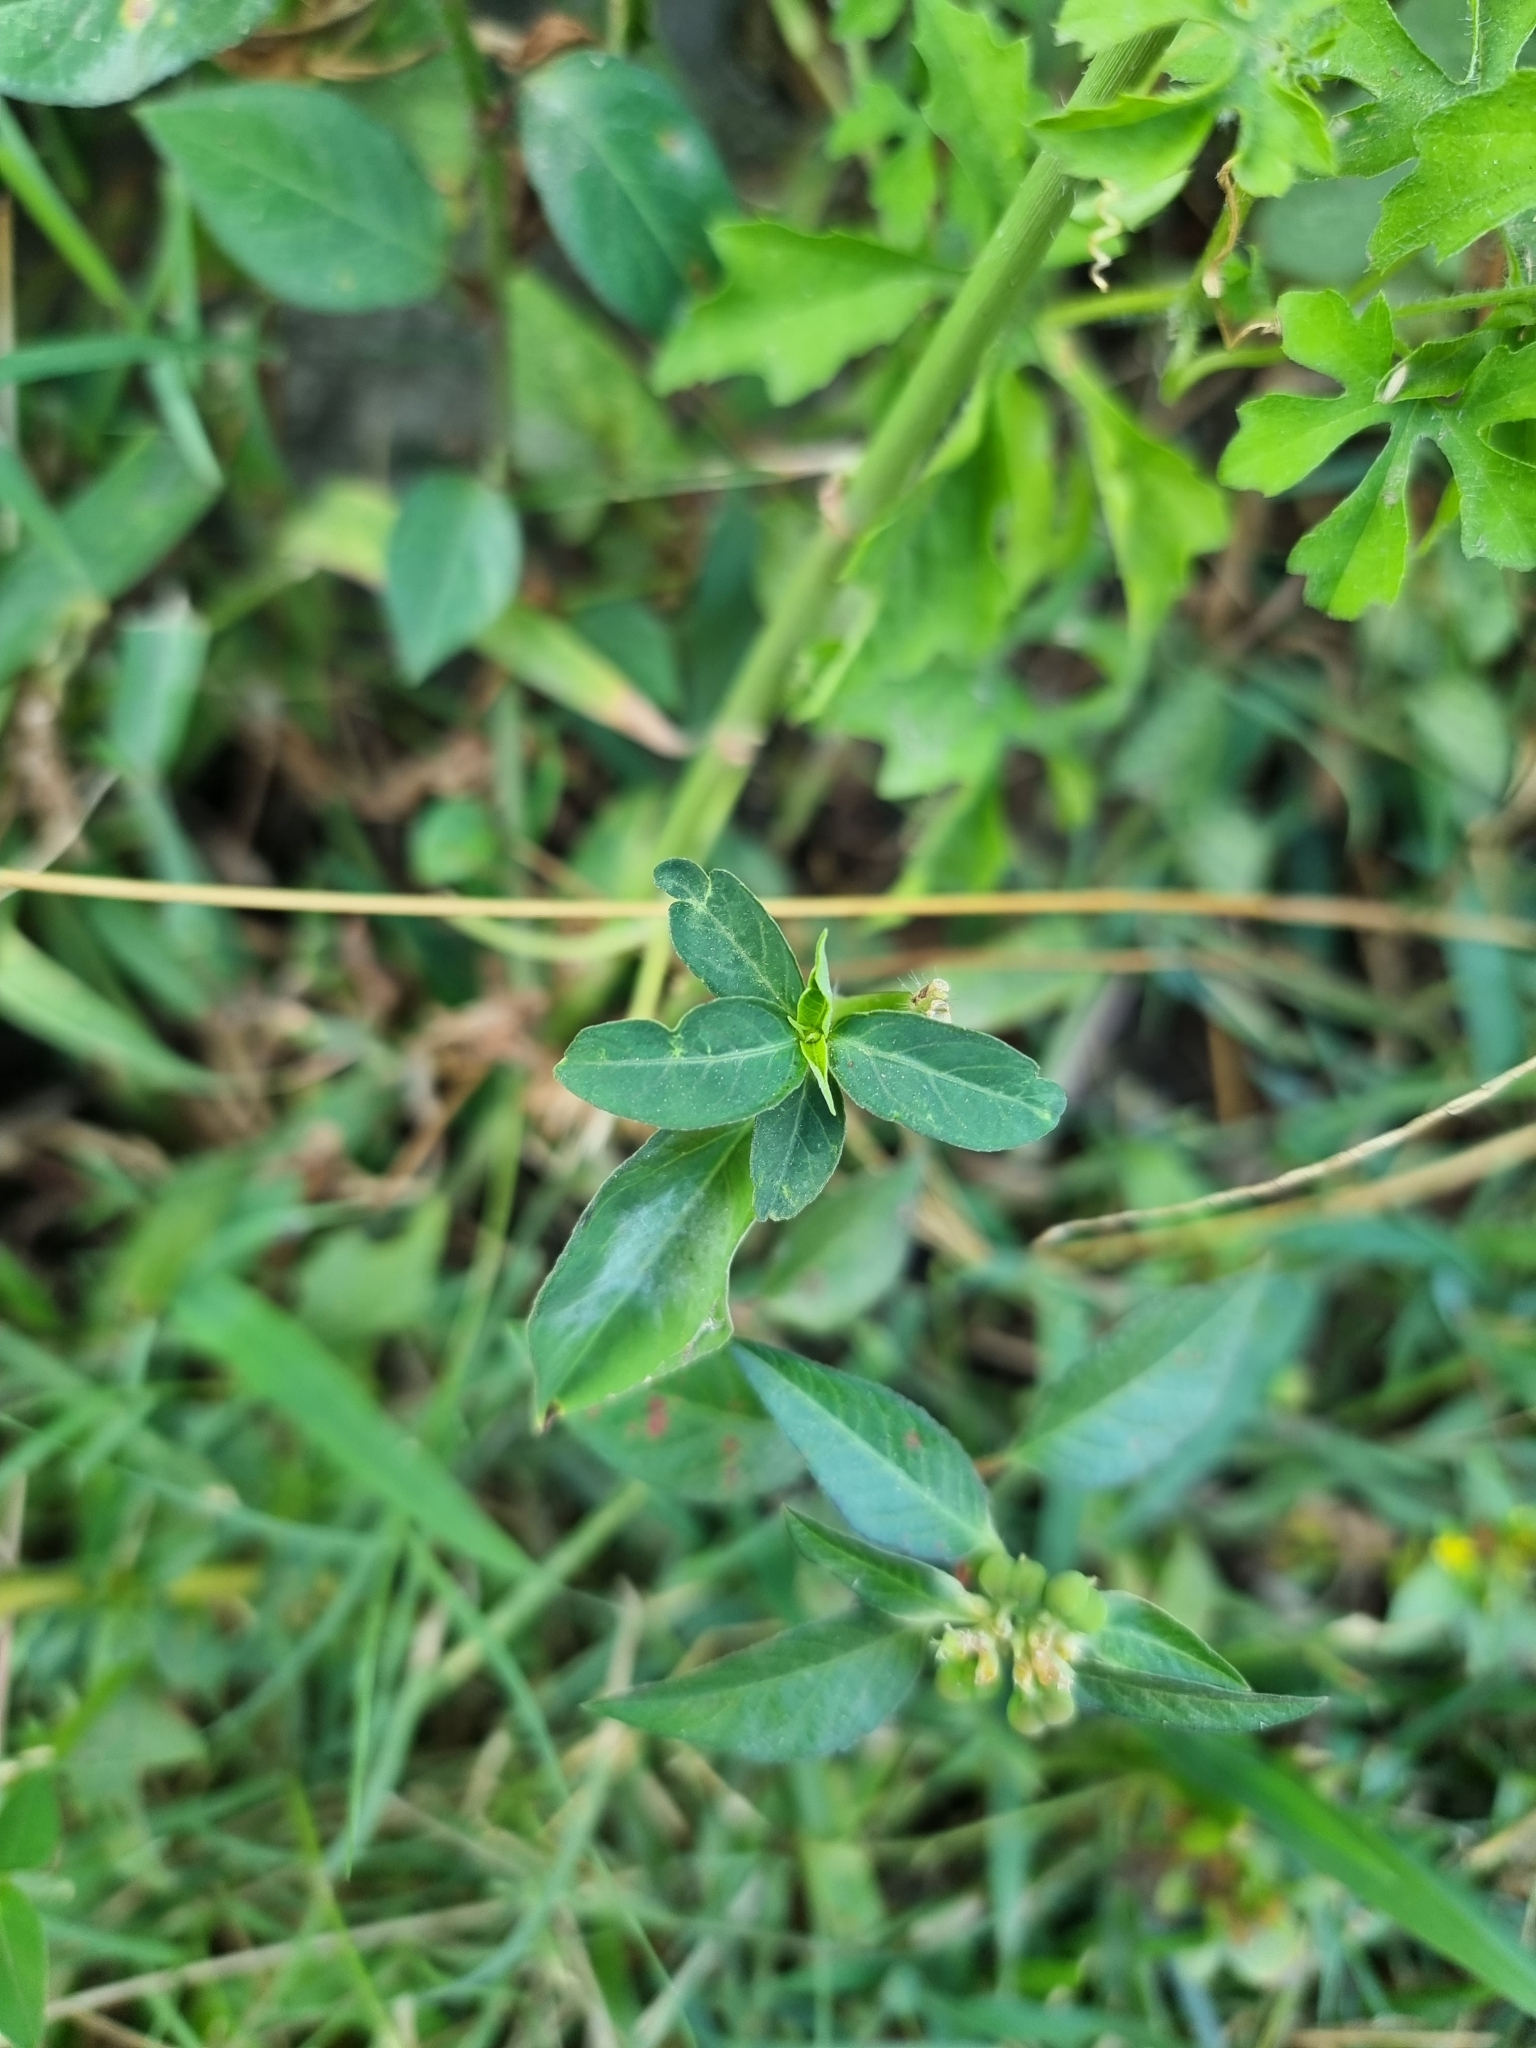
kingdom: Plantae
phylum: Tracheophyta
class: Magnoliopsida
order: Malpighiales
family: Euphorbiaceae
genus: Euphorbia
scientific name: Euphorbia heterophylla
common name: Mexican fireplant
